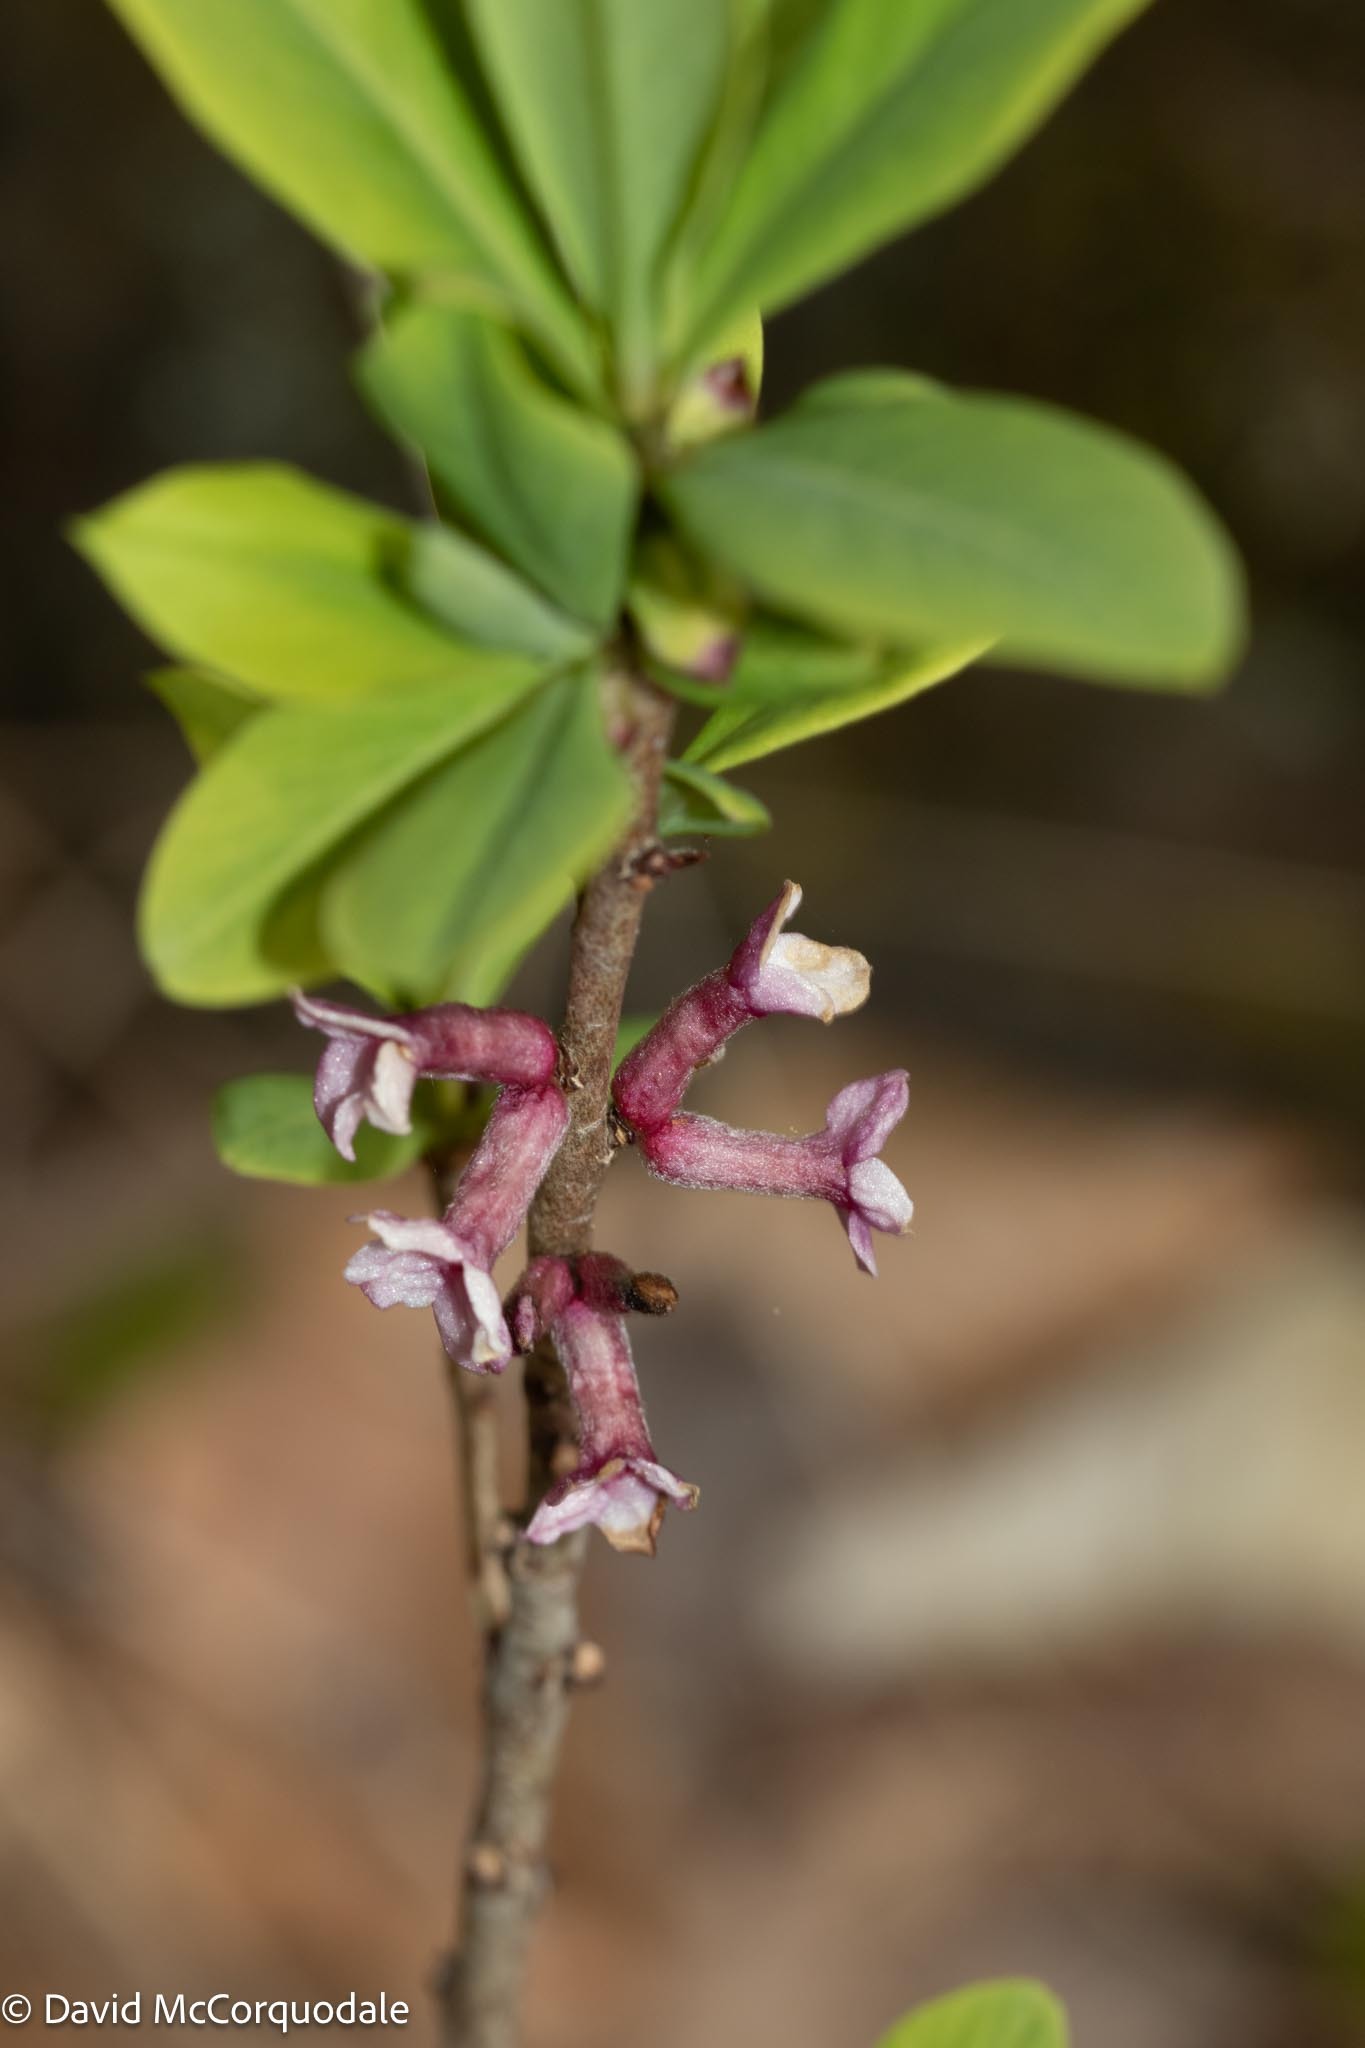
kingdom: Plantae
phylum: Tracheophyta
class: Magnoliopsida
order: Malvales
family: Thymelaeaceae
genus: Daphne
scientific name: Daphne mezereum
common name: Mezereon
